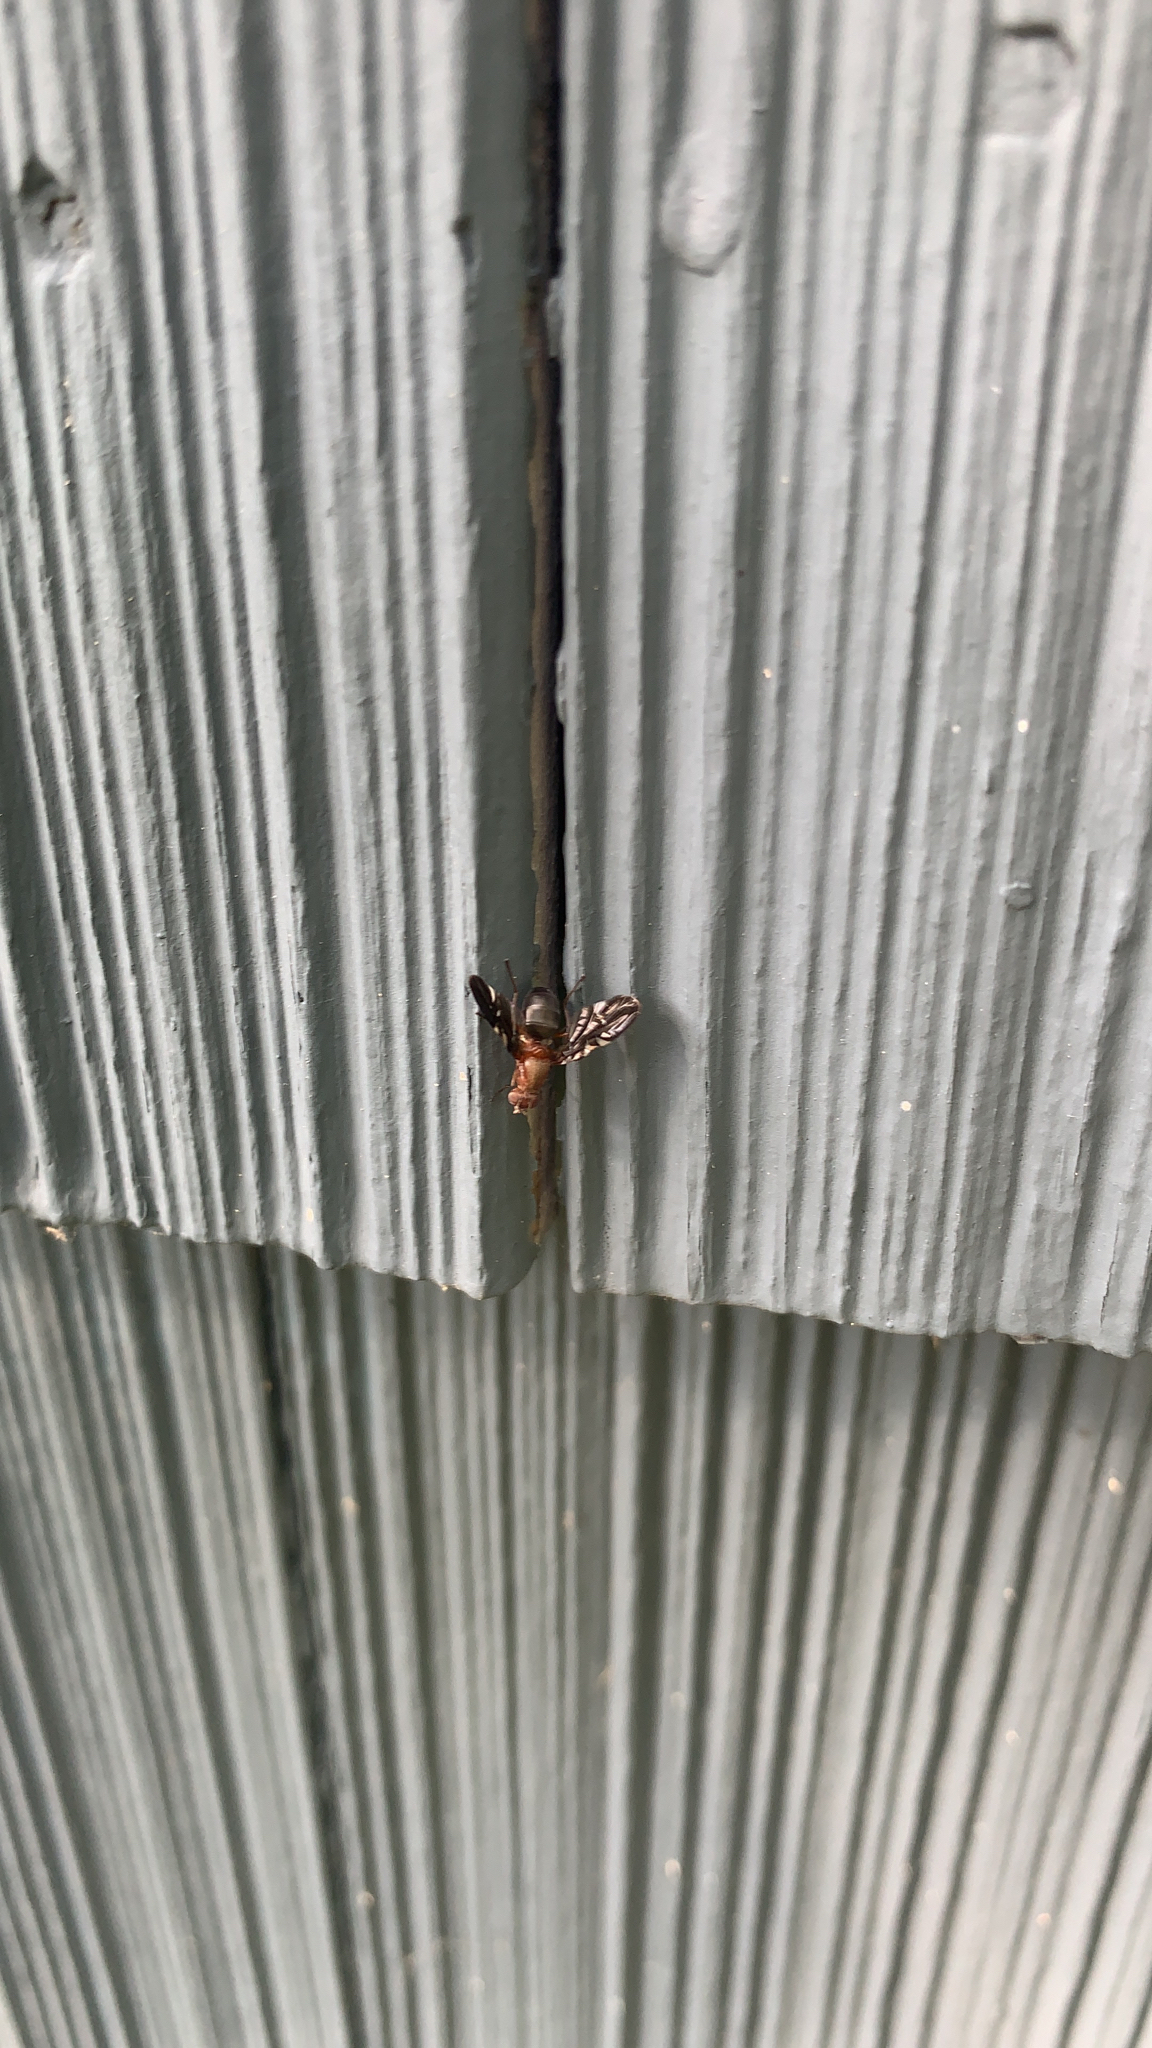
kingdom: Animalia
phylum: Arthropoda
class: Insecta
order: Diptera
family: Ulidiidae
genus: Delphinia
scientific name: Delphinia picta
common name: Common picture-winged fly
